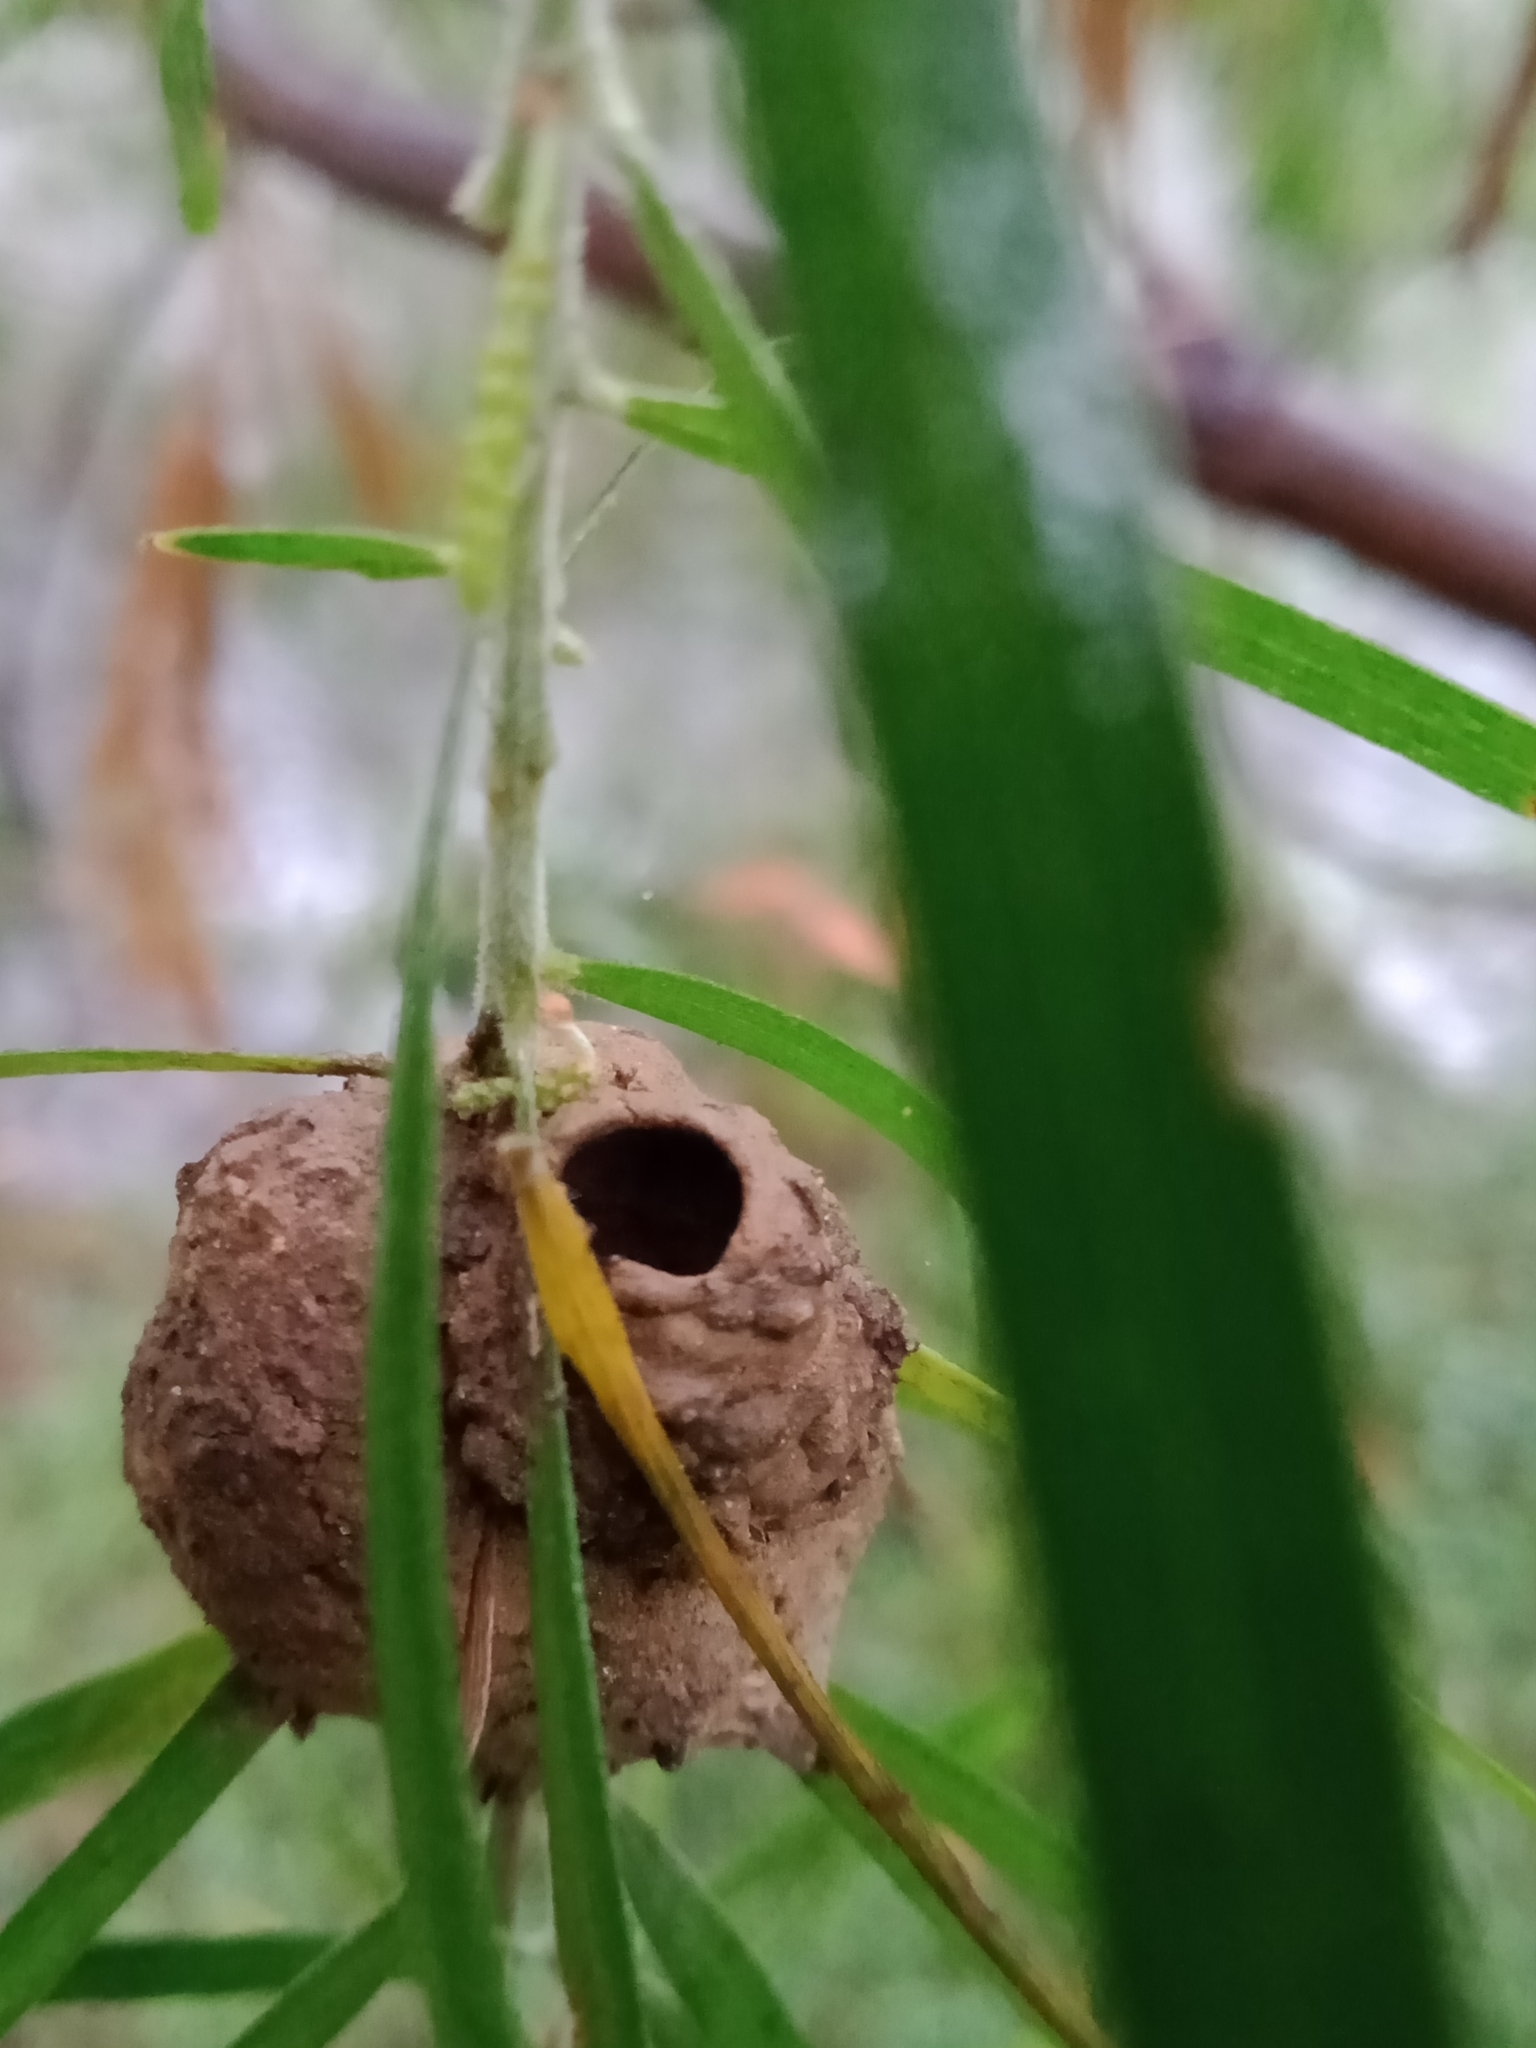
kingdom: Animalia
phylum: Arthropoda
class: Insecta
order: Hymenoptera
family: Eumenidae
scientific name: Eumenidae
